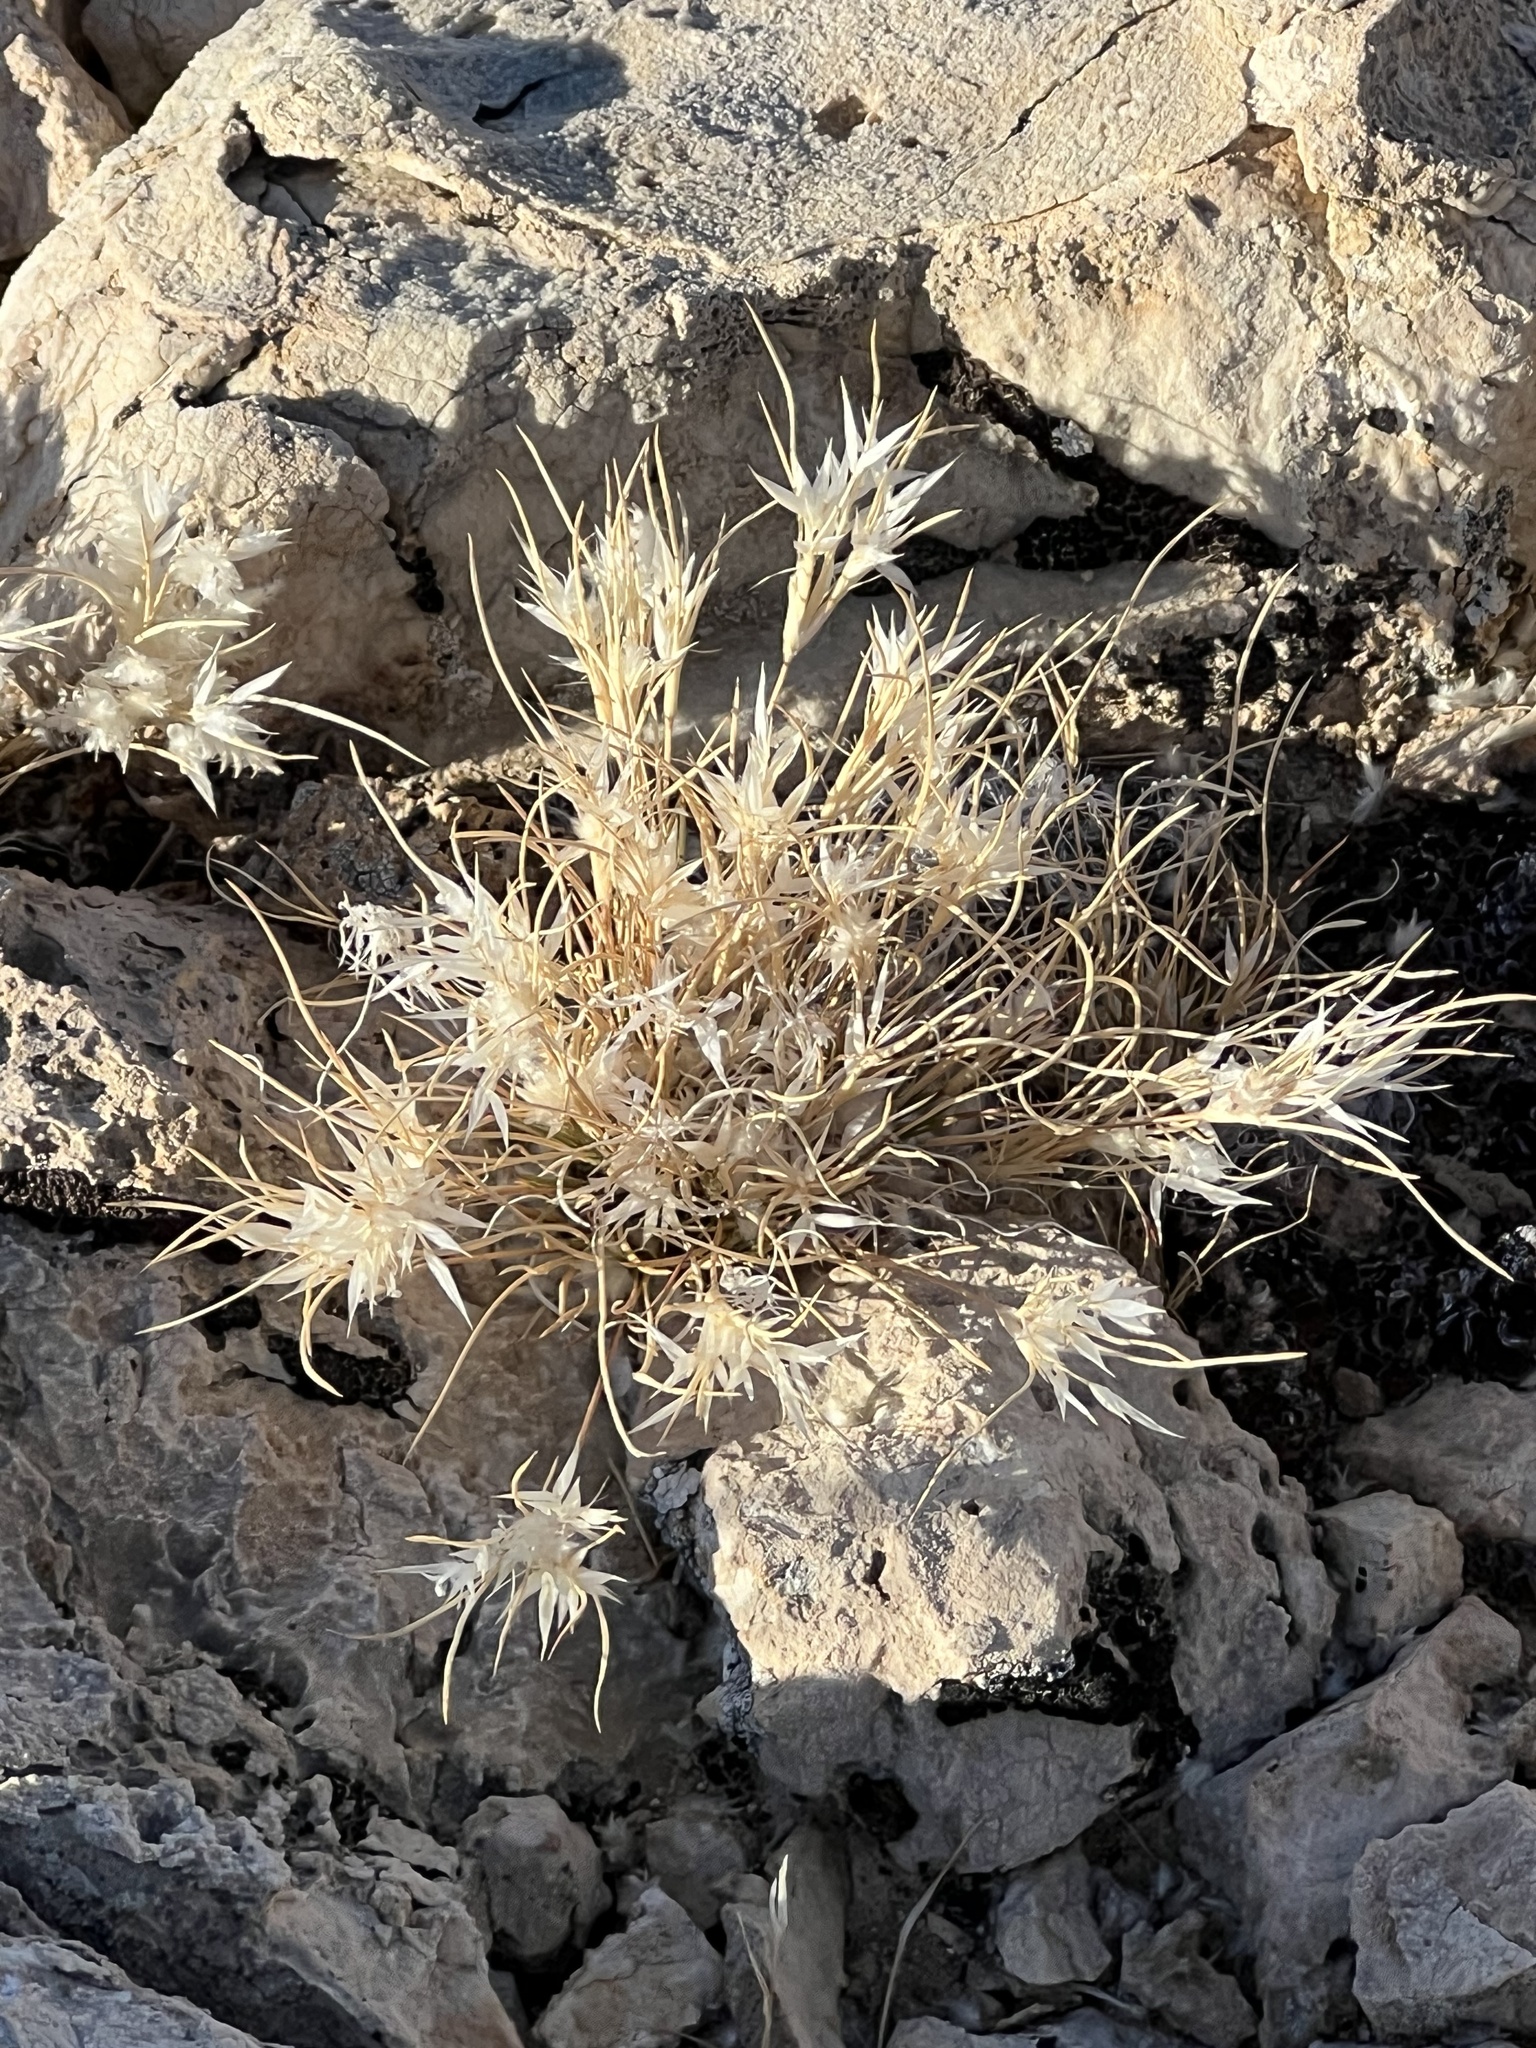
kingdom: Plantae
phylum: Tracheophyta
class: Liliopsida
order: Poales
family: Poaceae
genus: Dasyochloa
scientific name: Dasyochloa pulchella
